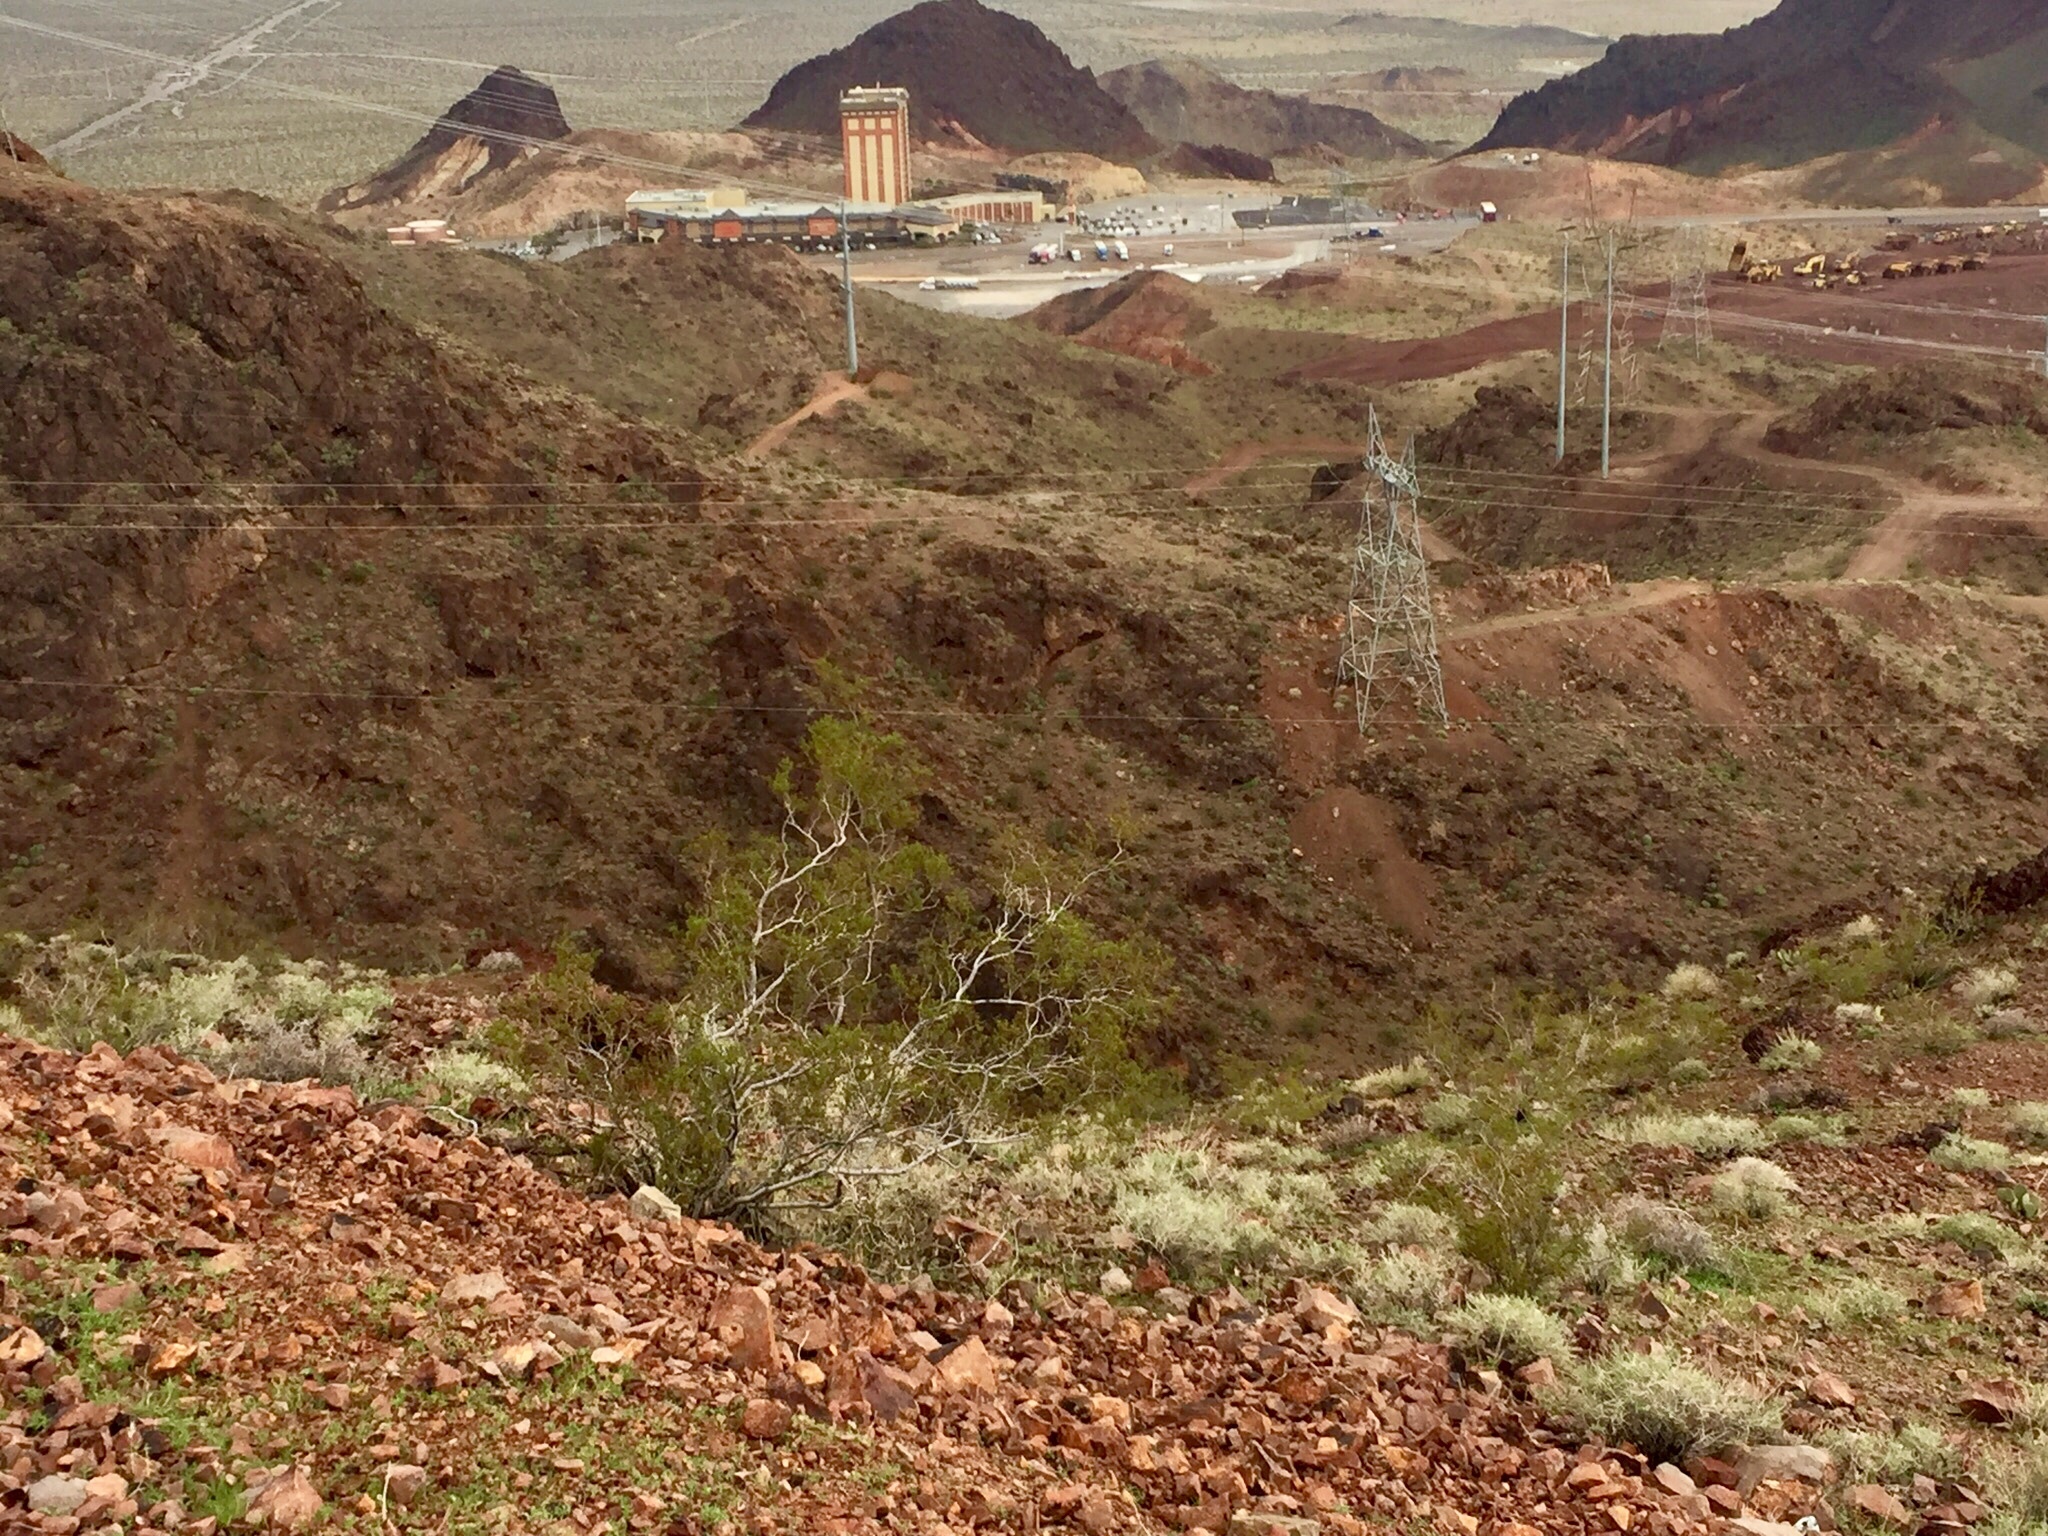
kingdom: Plantae
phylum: Tracheophyta
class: Magnoliopsida
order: Zygophyllales
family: Zygophyllaceae
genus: Larrea
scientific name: Larrea tridentata
